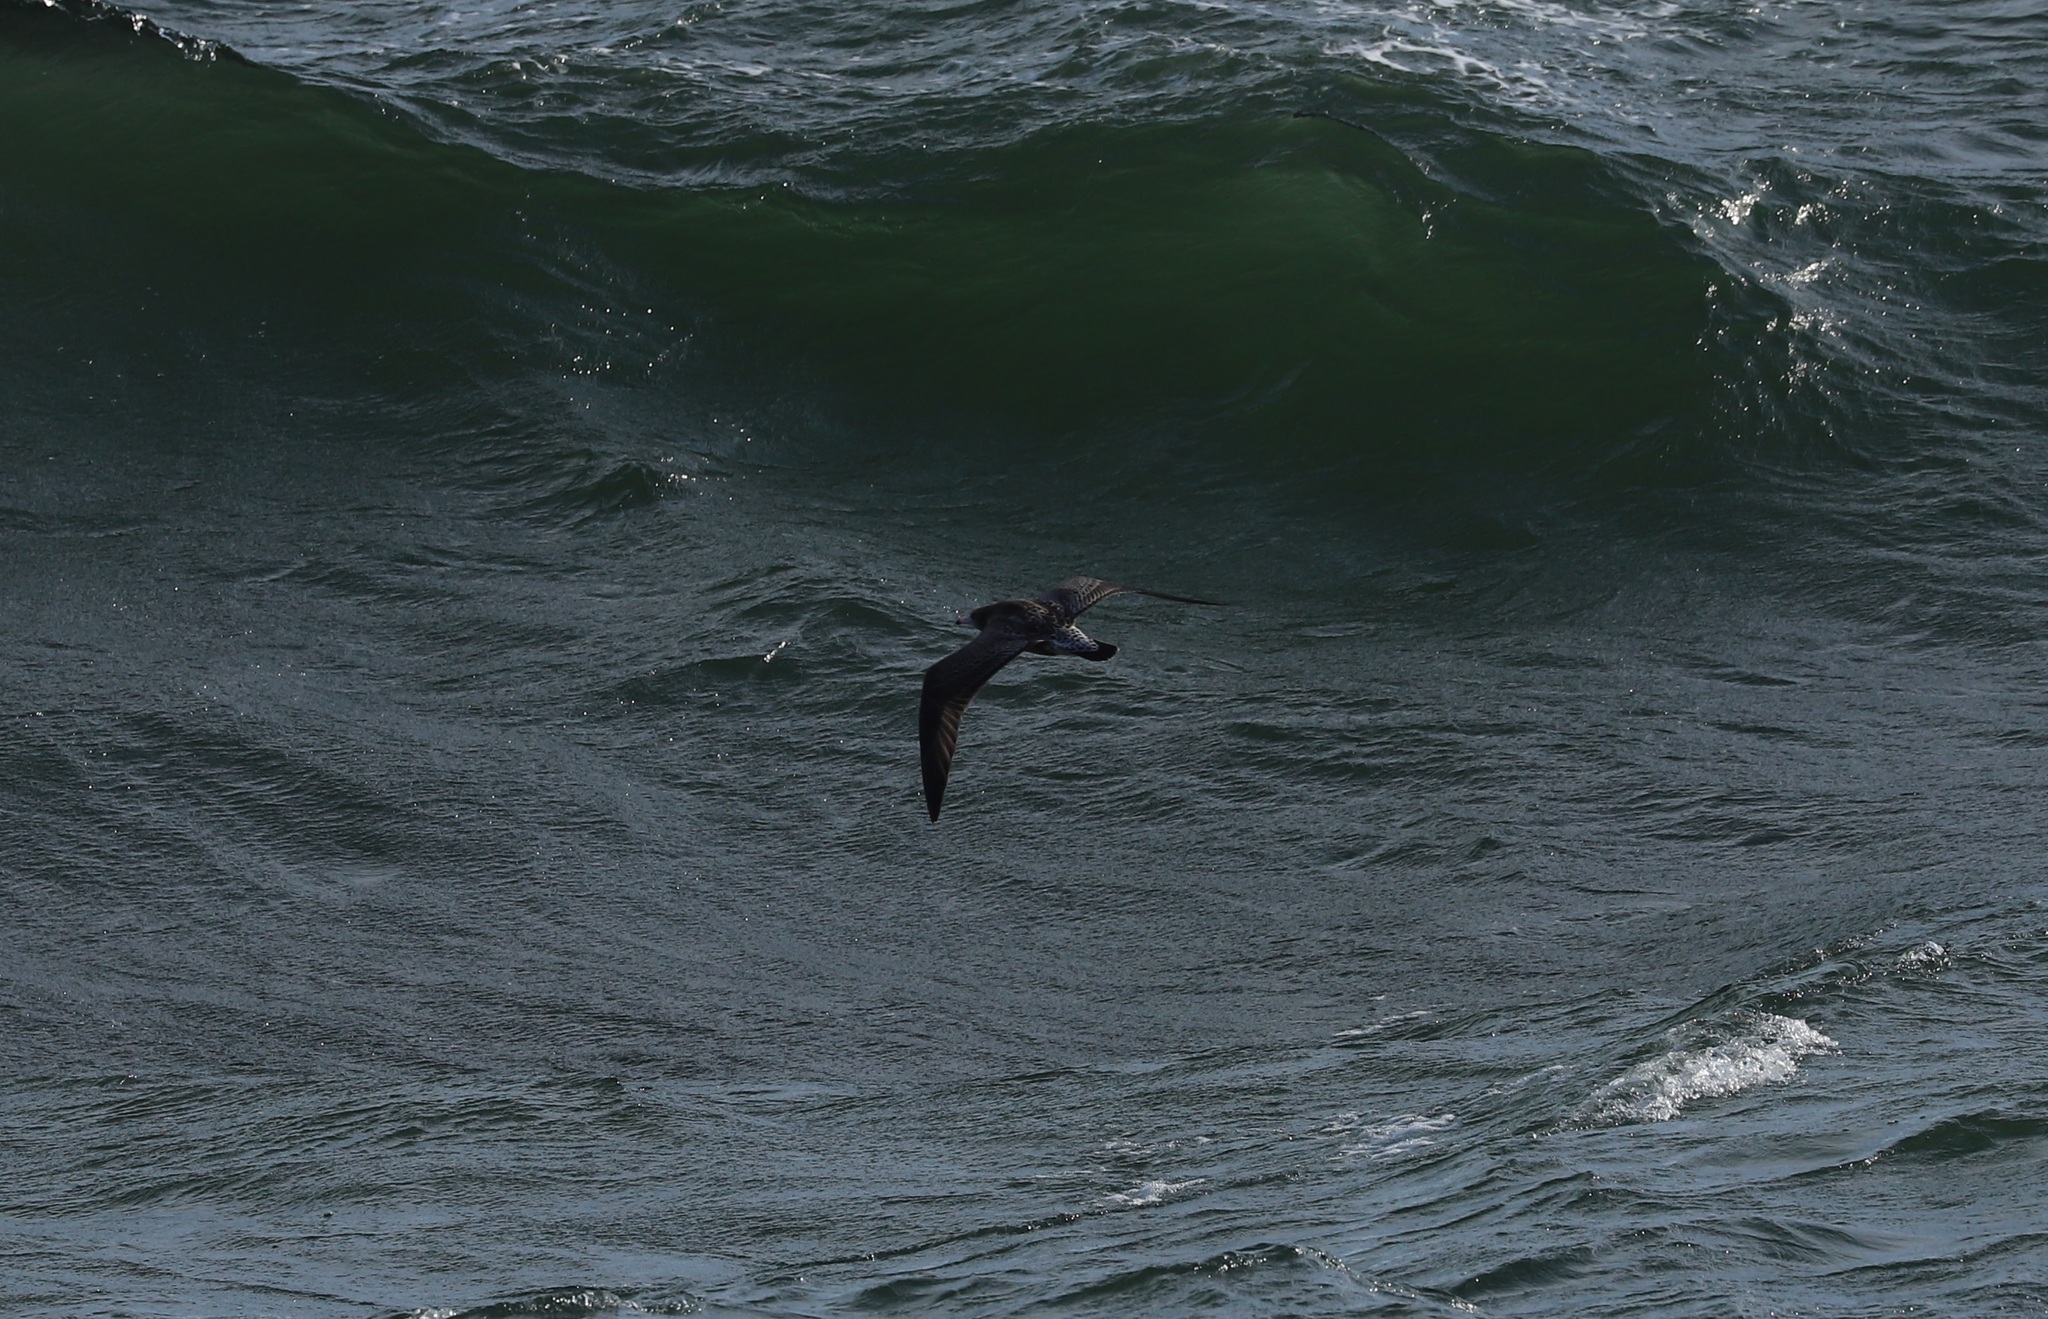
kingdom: Animalia
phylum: Chordata
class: Aves
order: Charadriiformes
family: Laridae
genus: Larus
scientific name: Larus crassirostris
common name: Black-tailed gull
